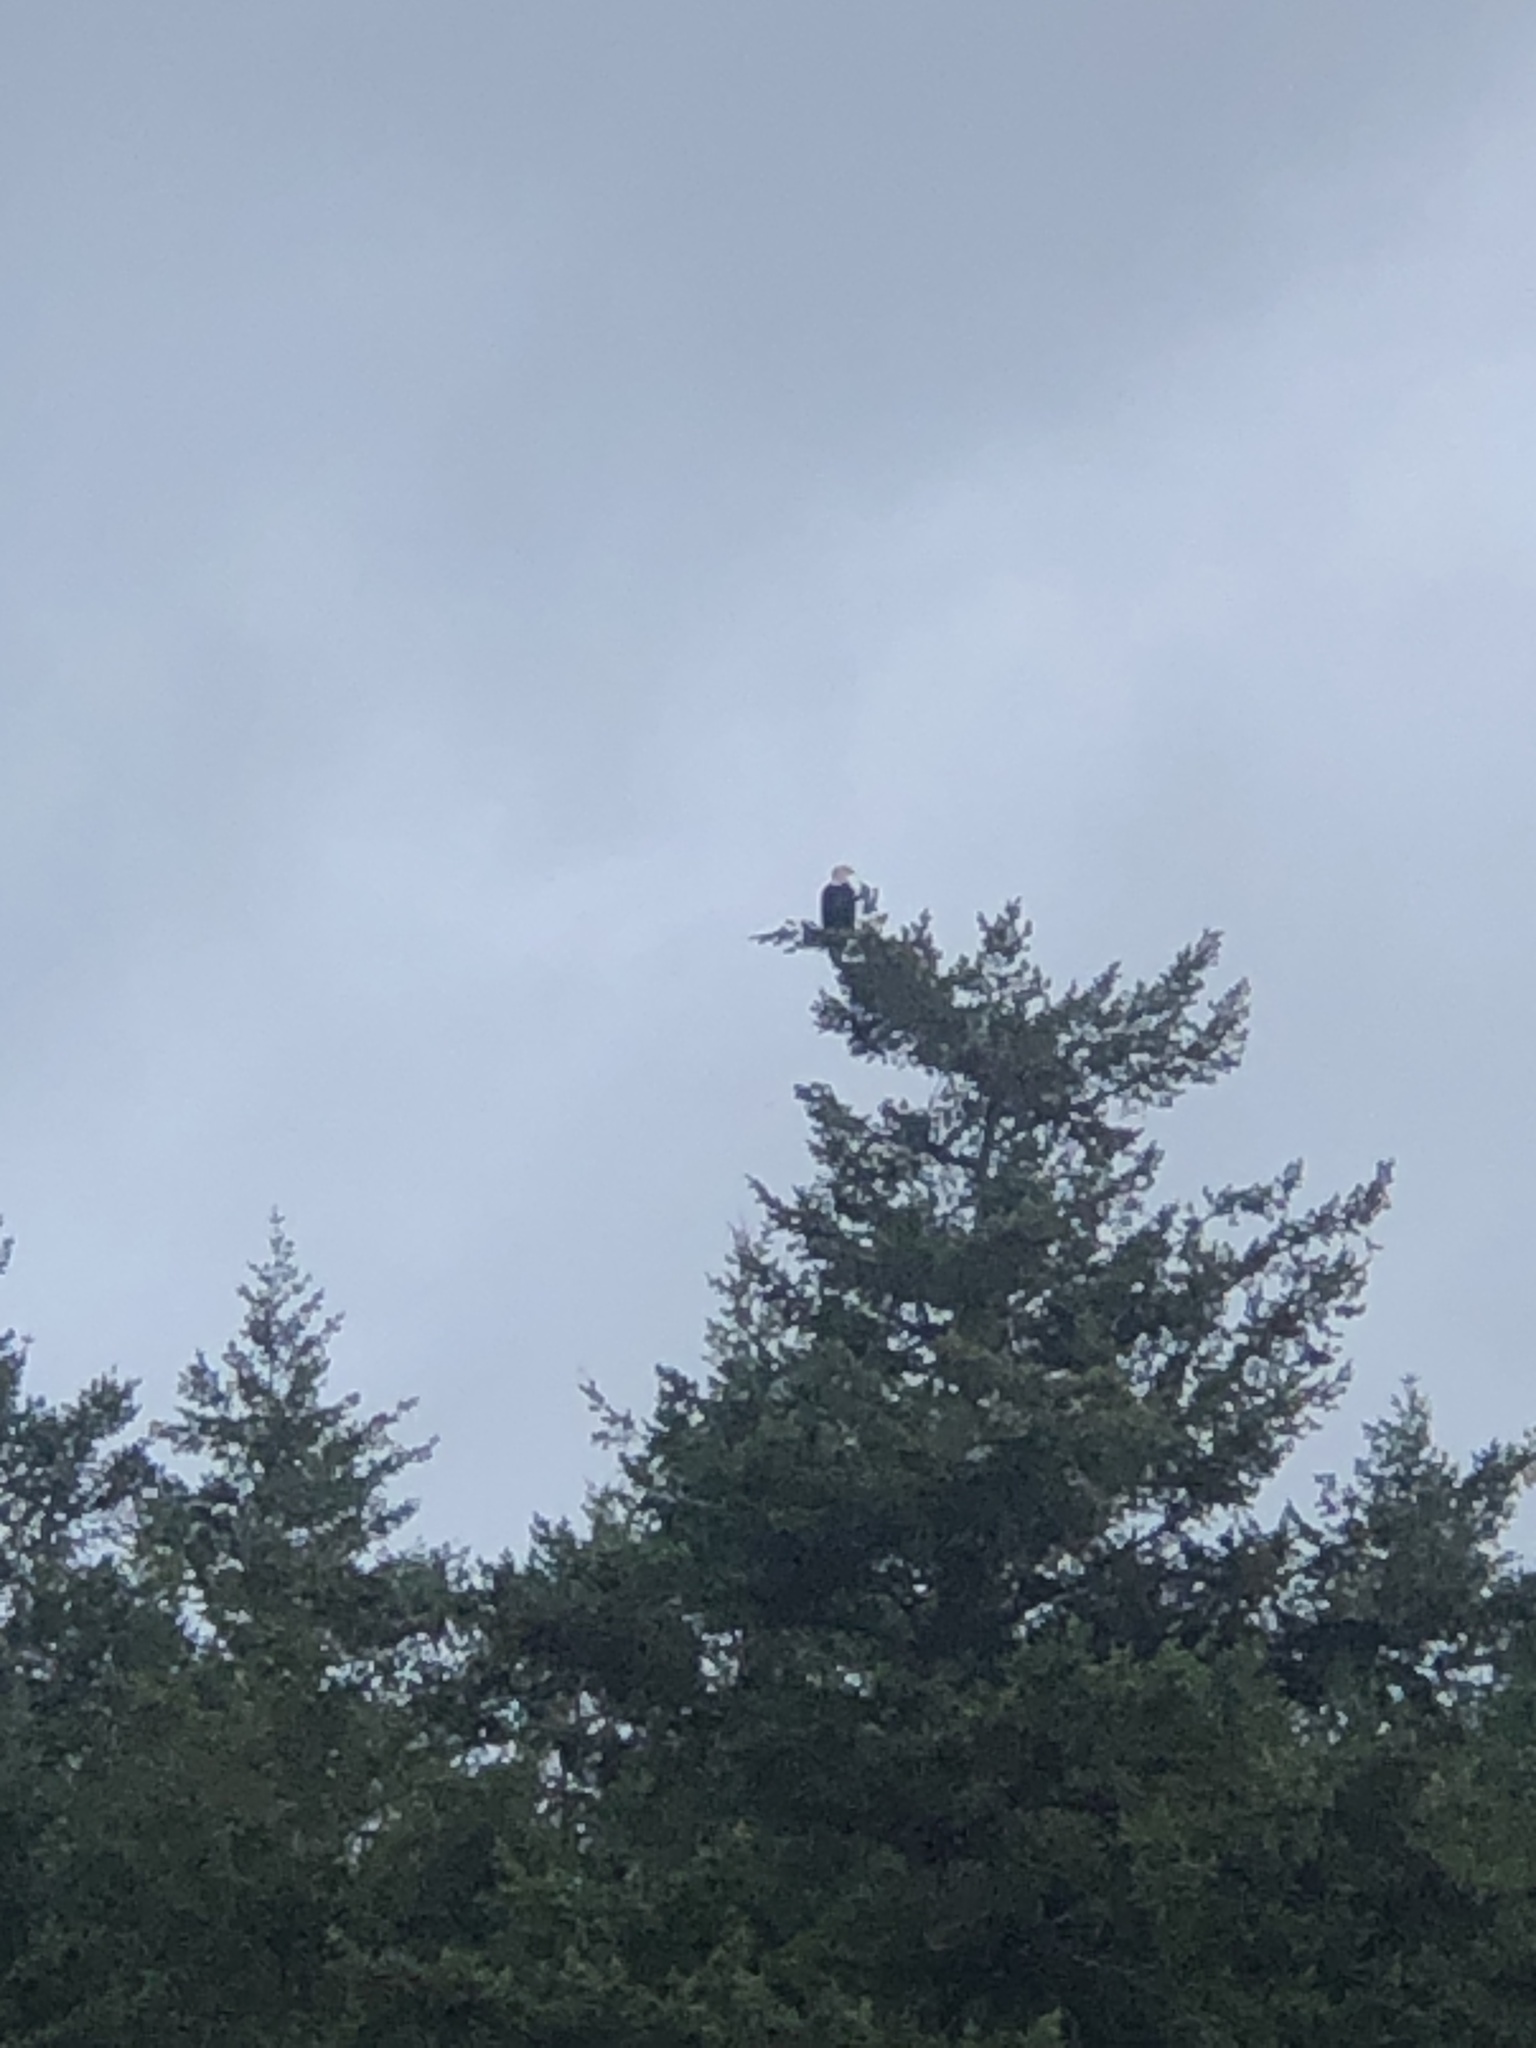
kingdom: Animalia
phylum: Chordata
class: Aves
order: Accipitriformes
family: Accipitridae
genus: Haliaeetus
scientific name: Haliaeetus leucocephalus
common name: Bald eagle
